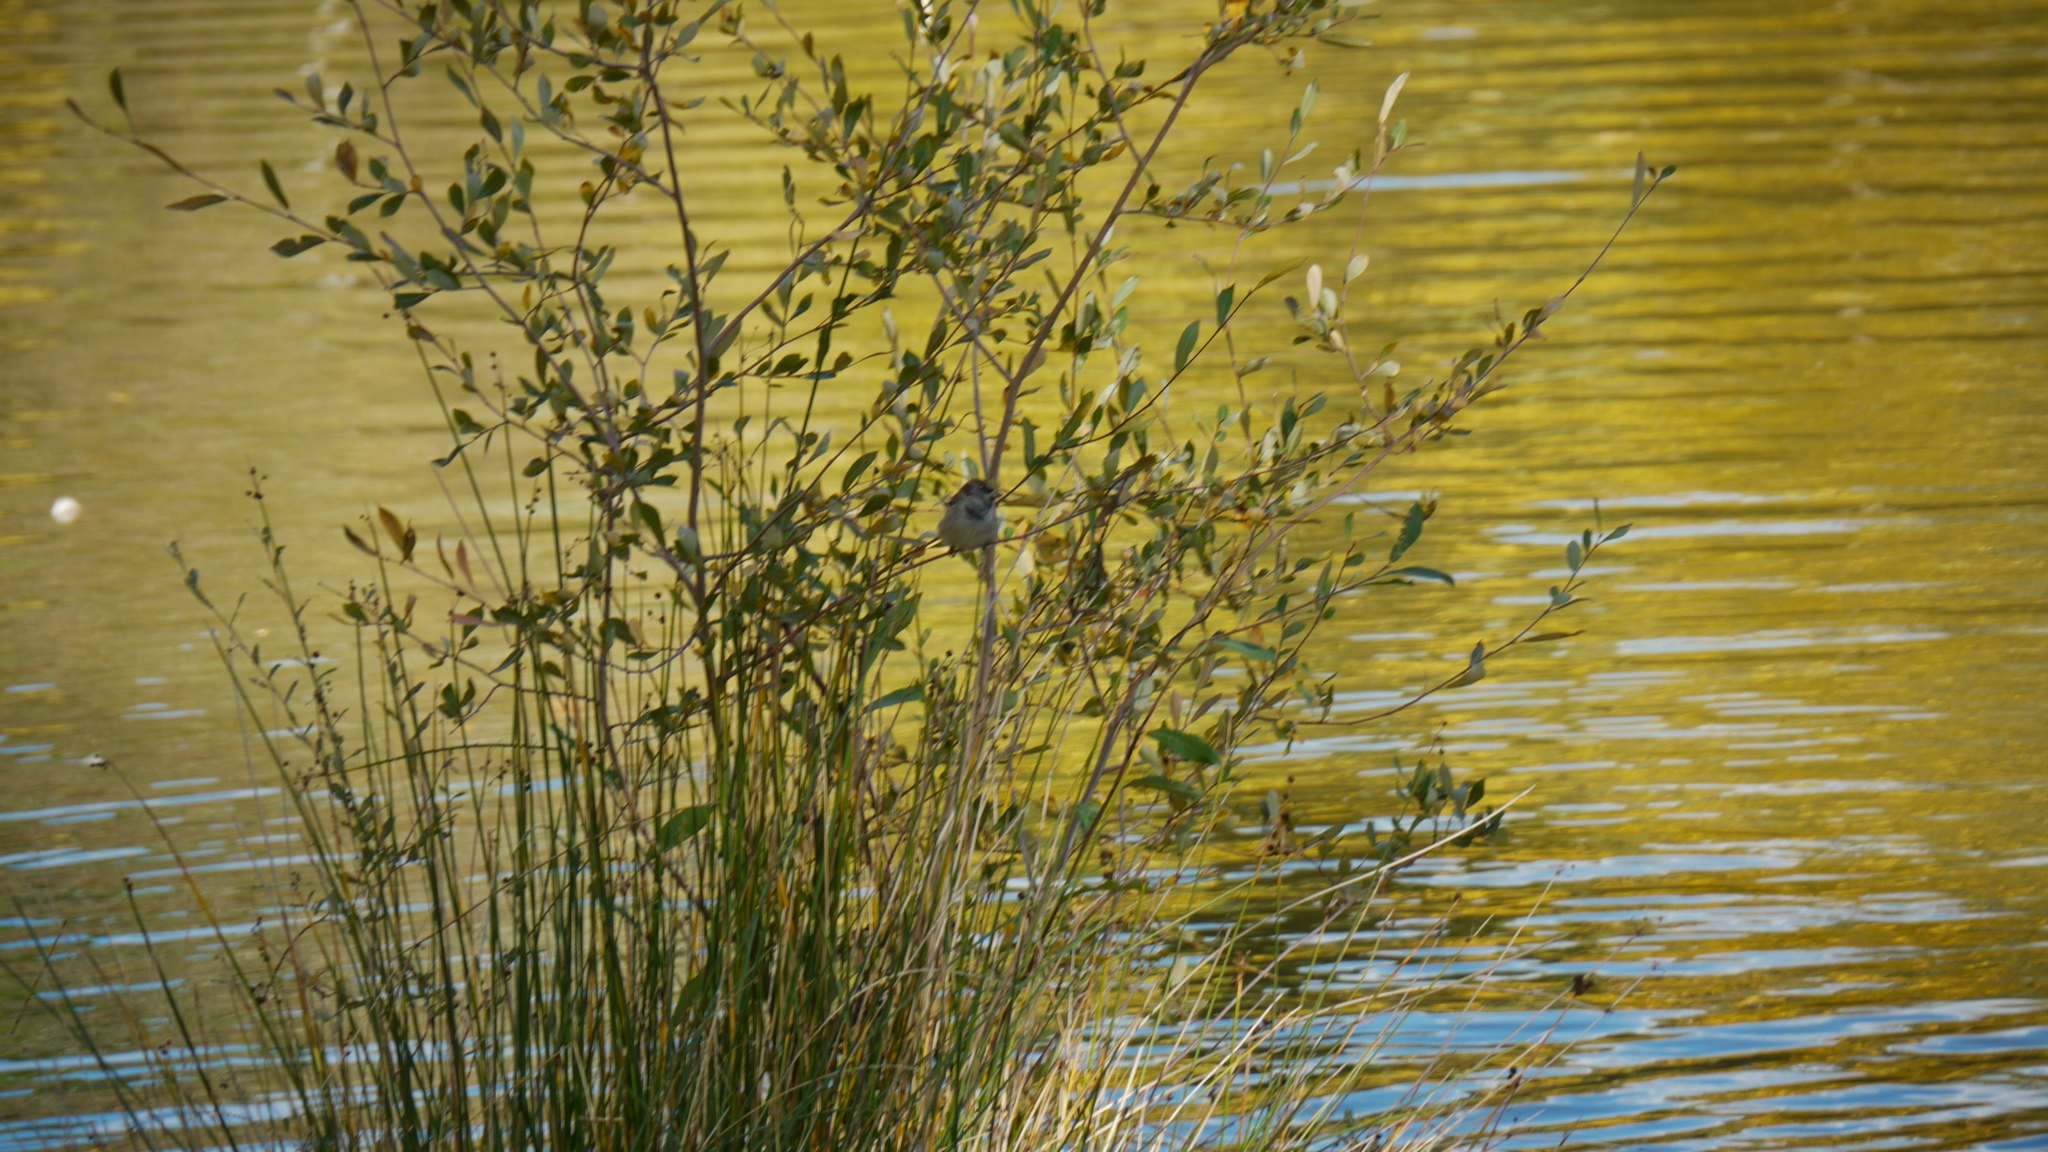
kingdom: Plantae
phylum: Tracheophyta
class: Magnoliopsida
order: Malpighiales
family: Salicaceae
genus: Salix
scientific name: Salix atrocinerea
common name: Rusty willow
